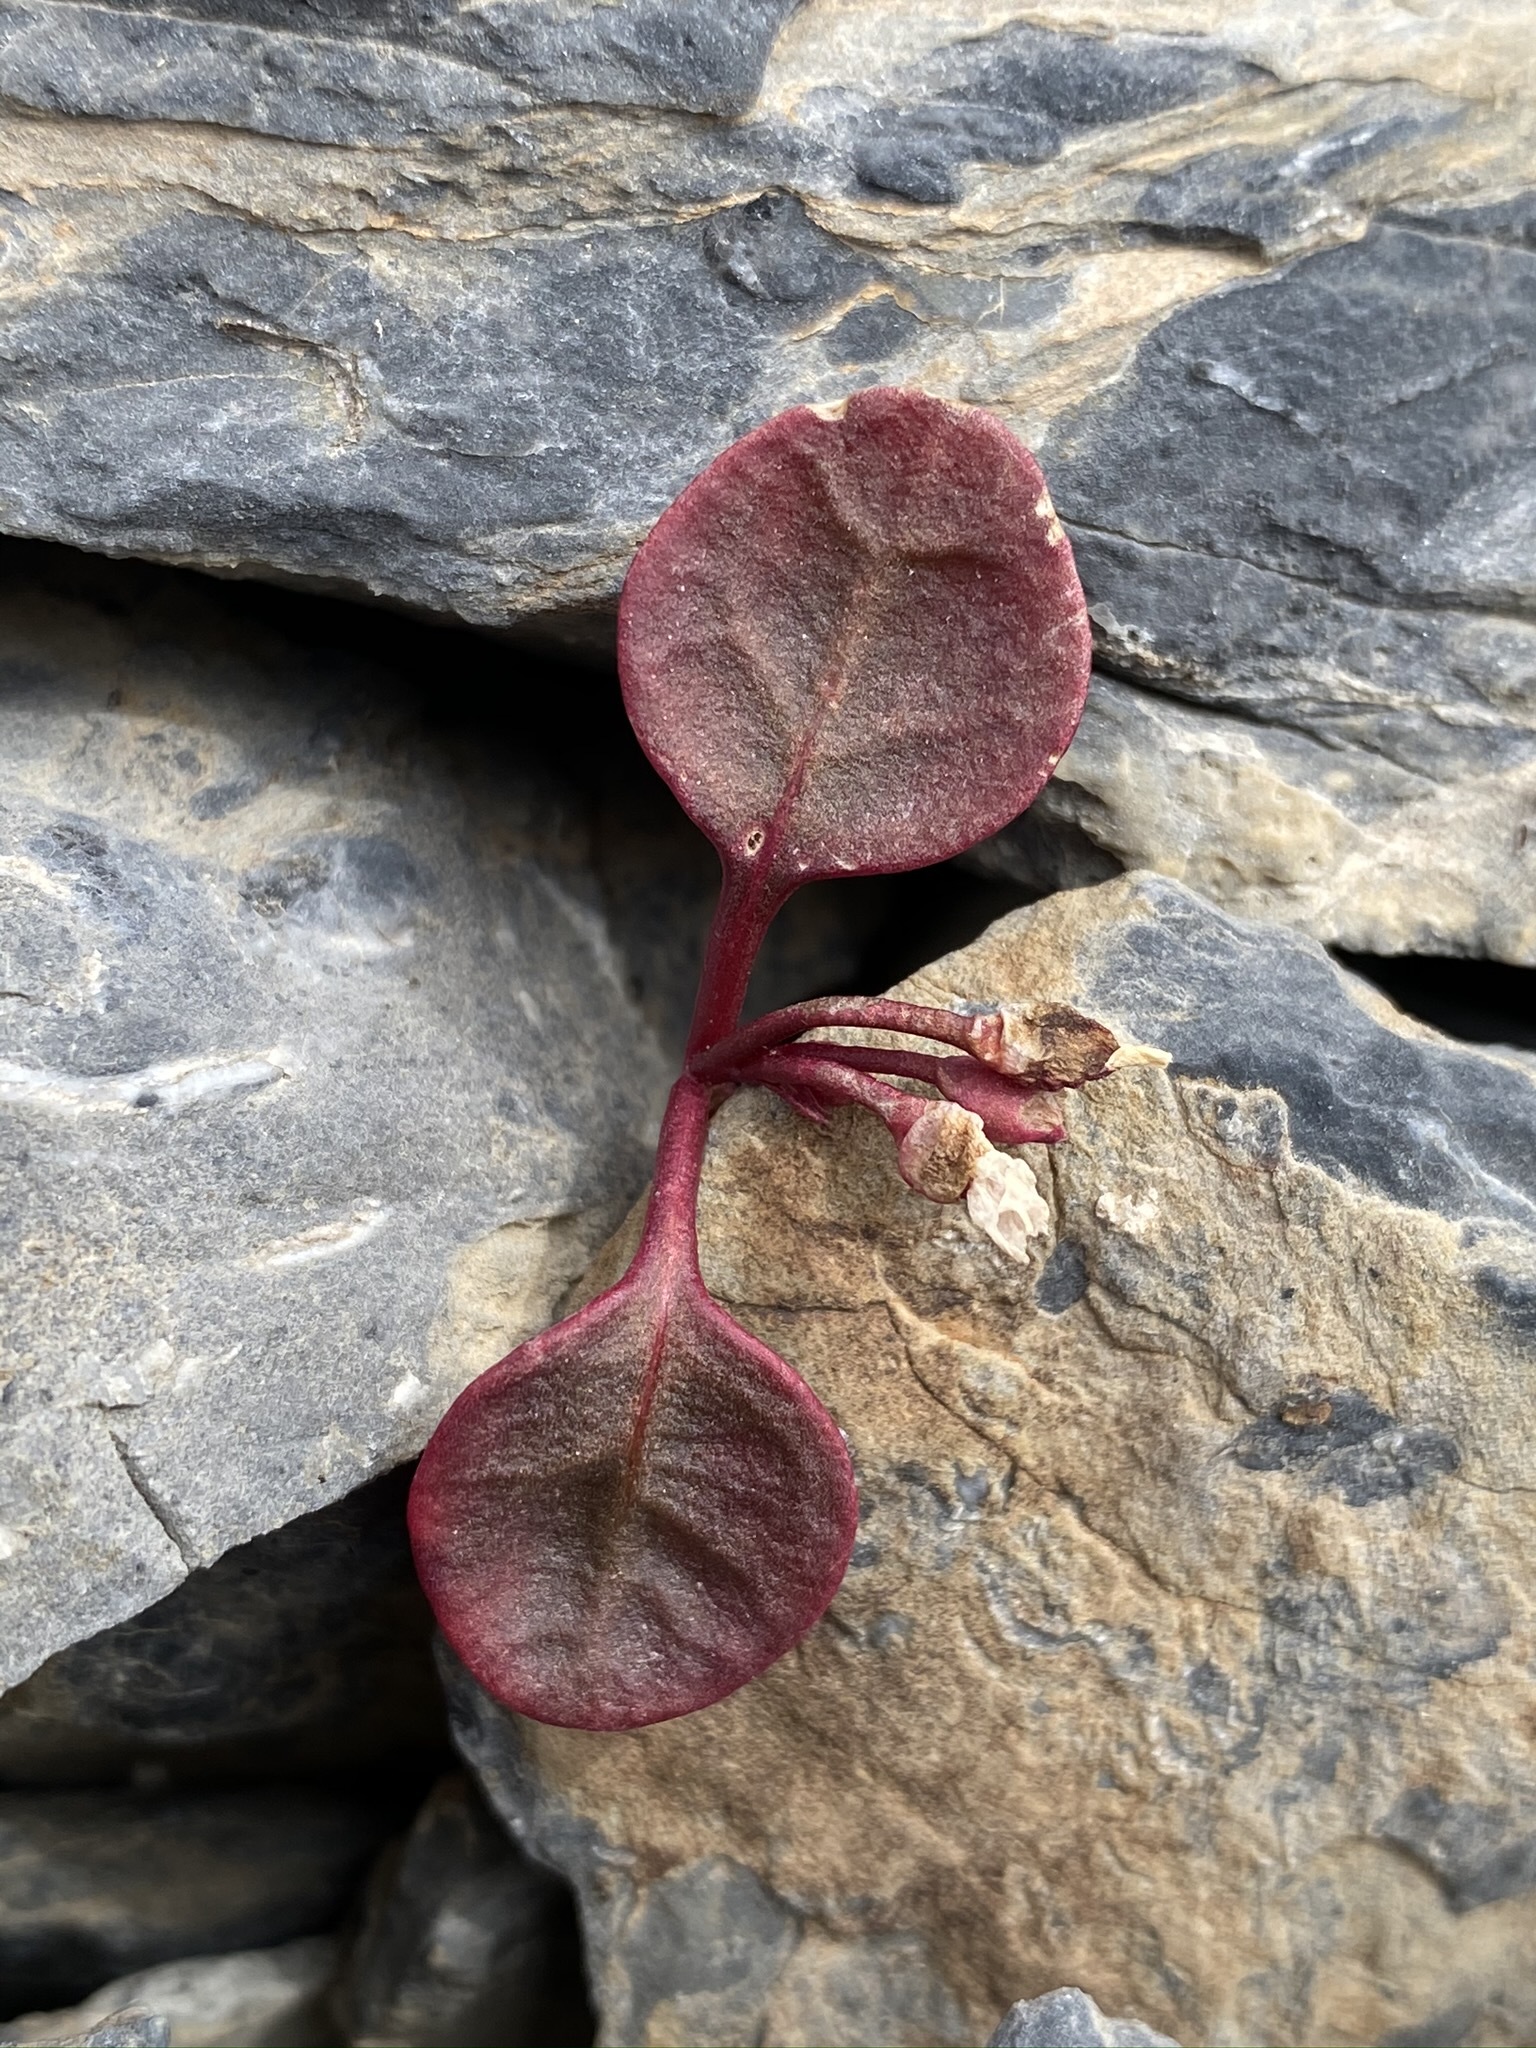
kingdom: Plantae
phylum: Tracheophyta
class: Magnoliopsida
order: Caryophyllales
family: Montiaceae
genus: Claytonia
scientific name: Claytonia umbellata
